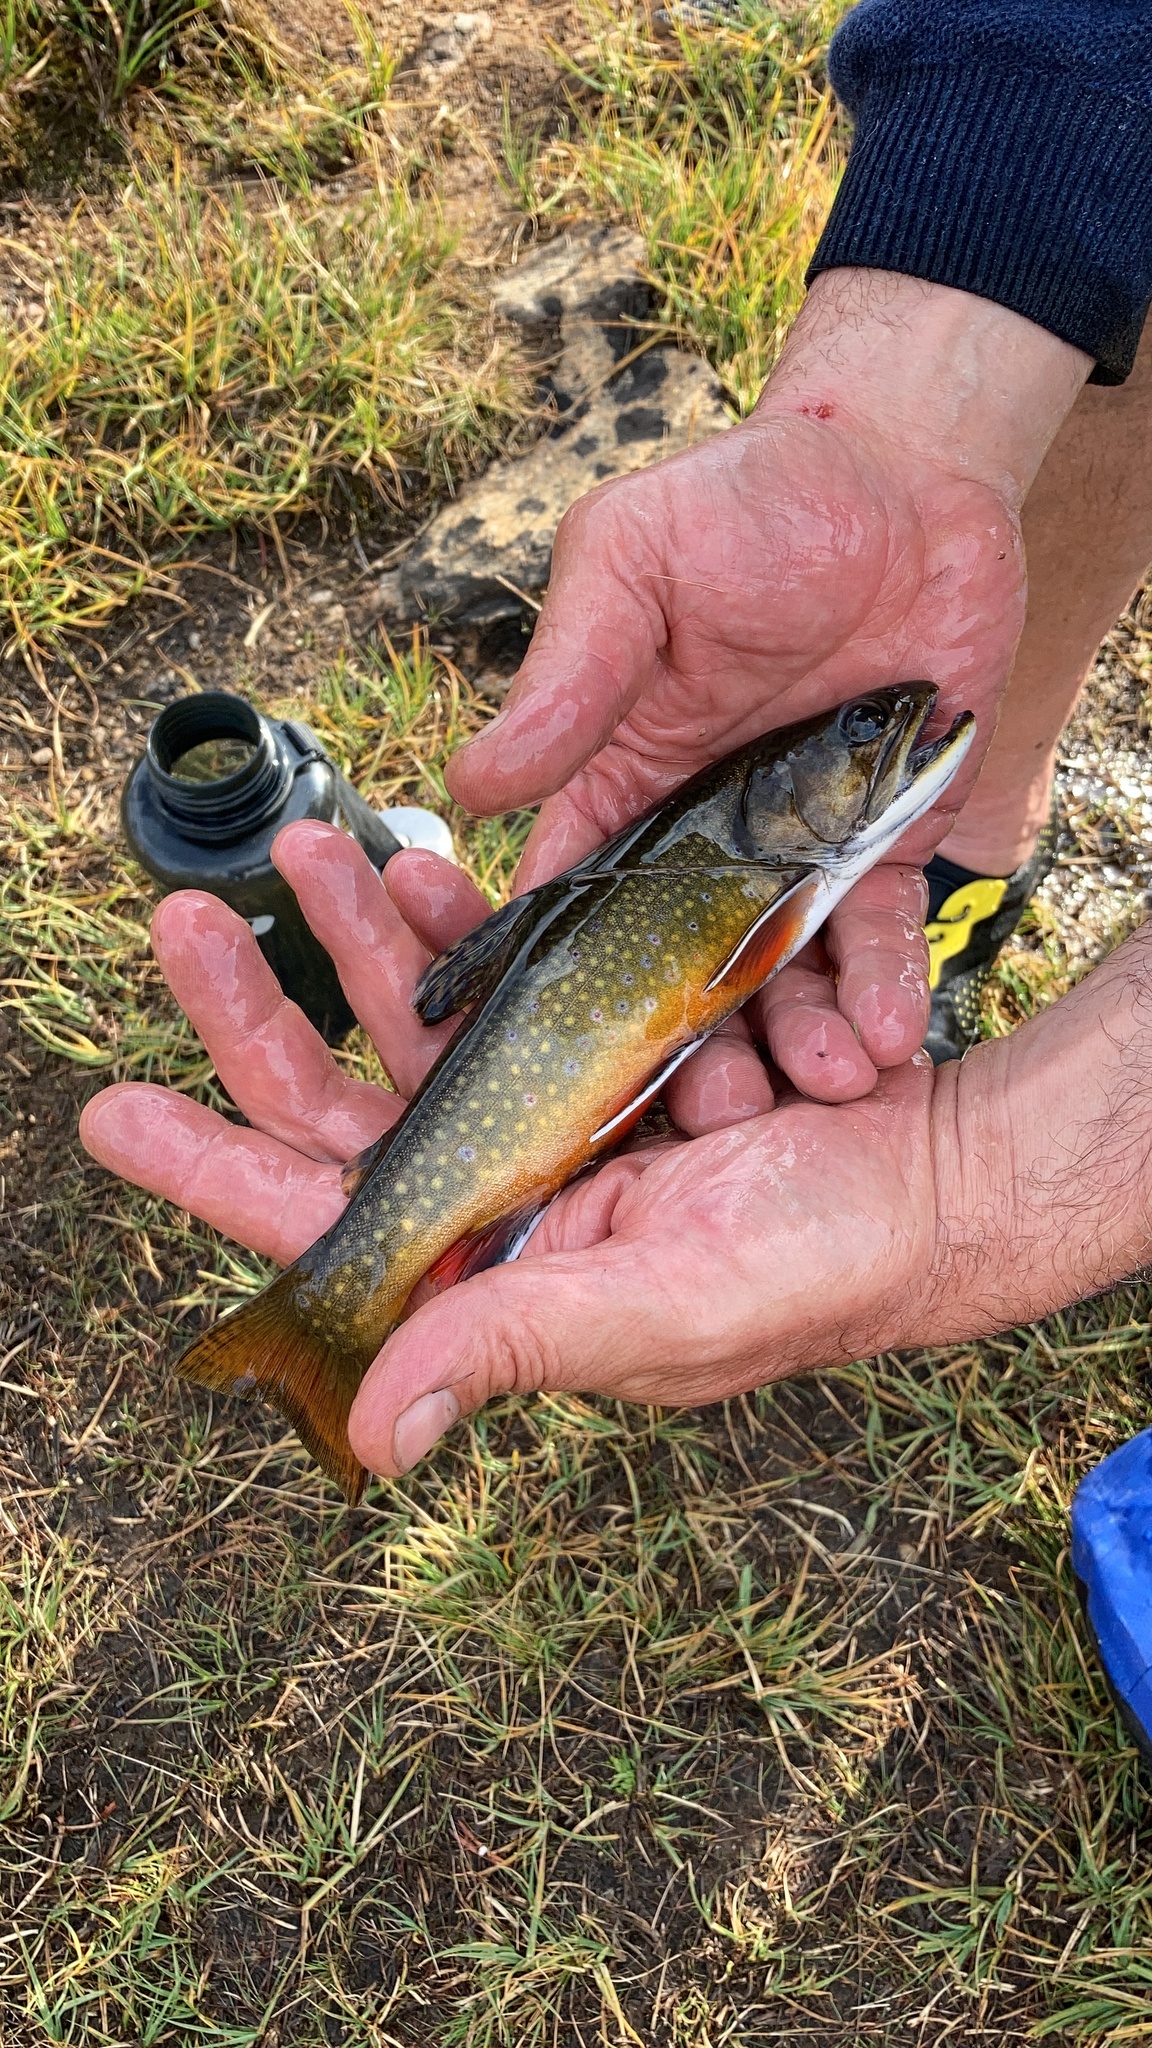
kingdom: Animalia
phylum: Chordata
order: Salmoniformes
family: Salmonidae
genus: Salvelinus
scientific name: Salvelinus fontinalis
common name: Brook trout
